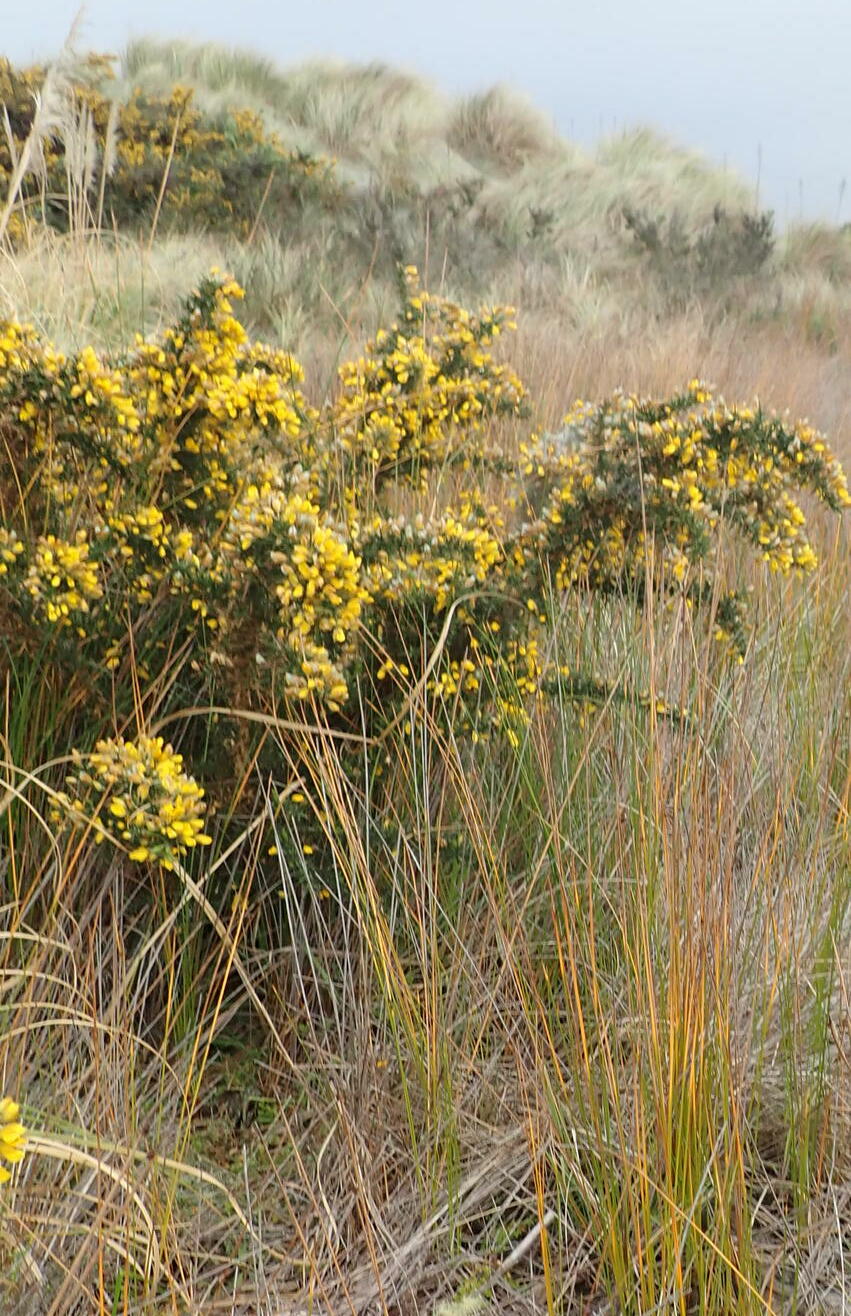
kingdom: Plantae
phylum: Tracheophyta
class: Magnoliopsida
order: Fabales
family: Fabaceae
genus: Ulex
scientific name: Ulex europaeus
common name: Common gorse
